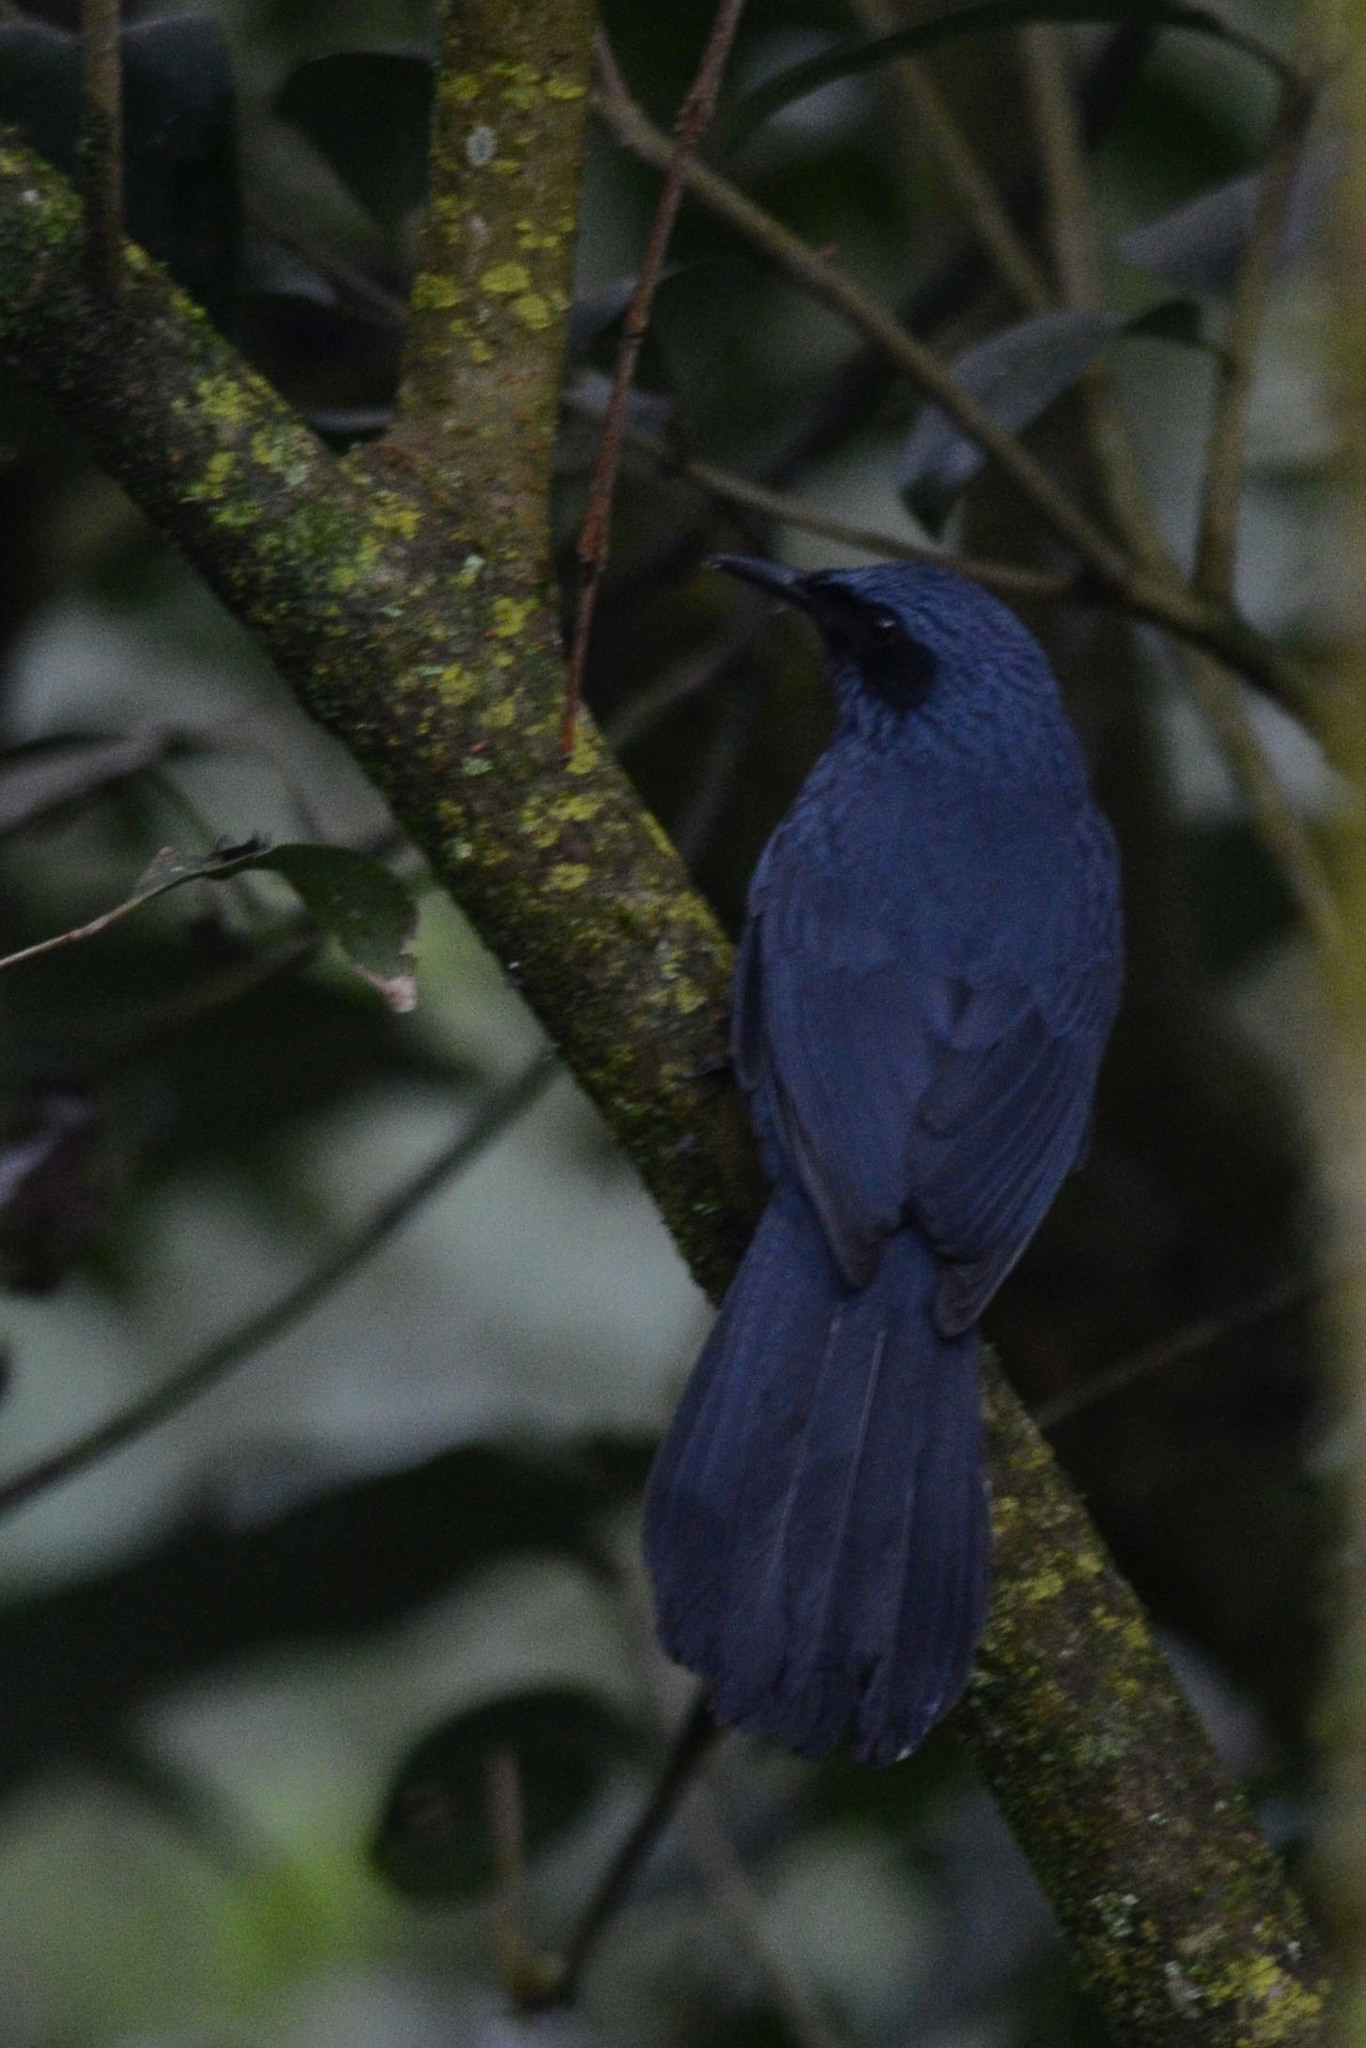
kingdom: Animalia
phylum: Chordata
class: Aves
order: Passeriformes
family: Mimidae
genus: Melanotis
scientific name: Melanotis caerulescens
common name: Blue mockingbird
